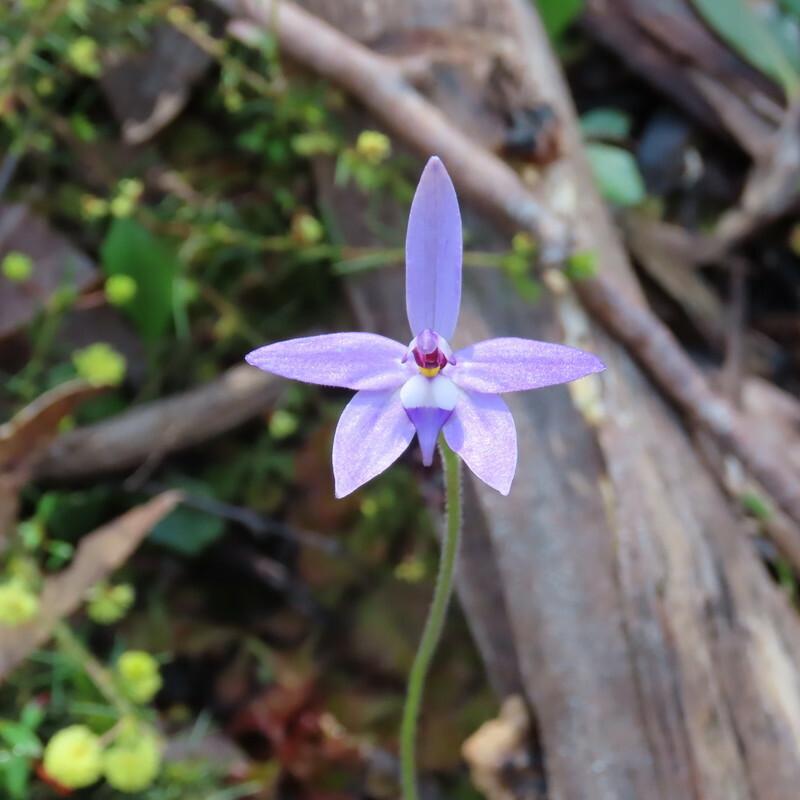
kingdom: Plantae
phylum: Tracheophyta
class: Liliopsida
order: Asparagales
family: Orchidaceae
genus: Caladenia
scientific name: Caladenia major
